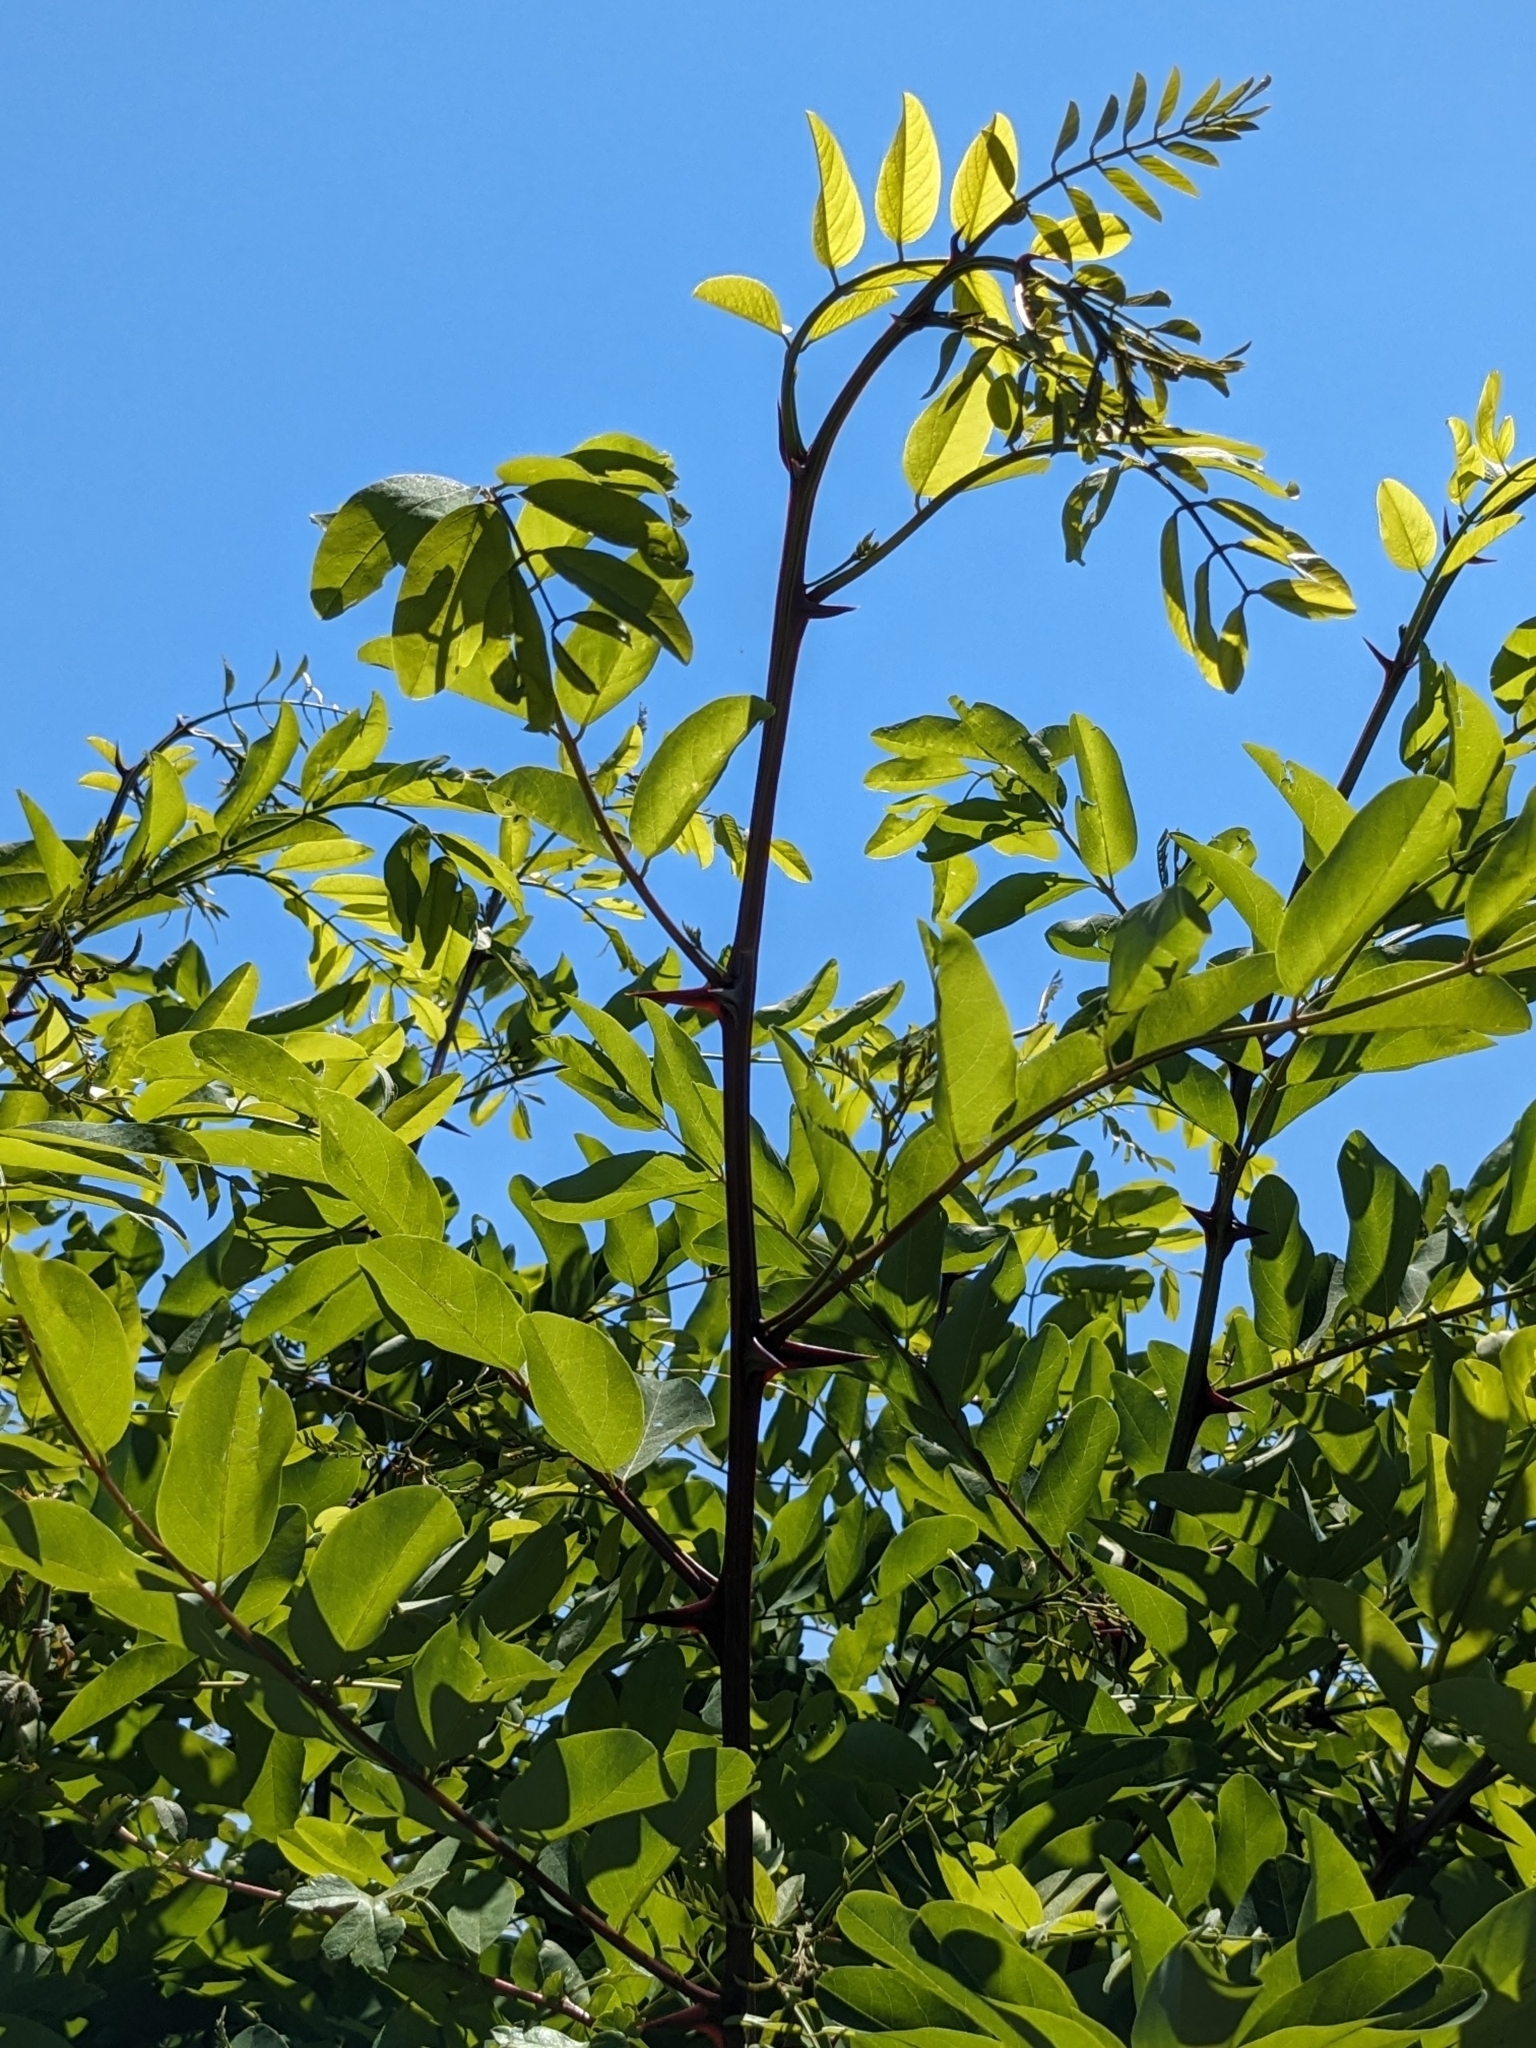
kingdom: Plantae
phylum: Tracheophyta
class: Magnoliopsida
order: Fabales
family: Fabaceae
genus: Robinia
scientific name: Robinia pseudoacacia
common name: Black locust
